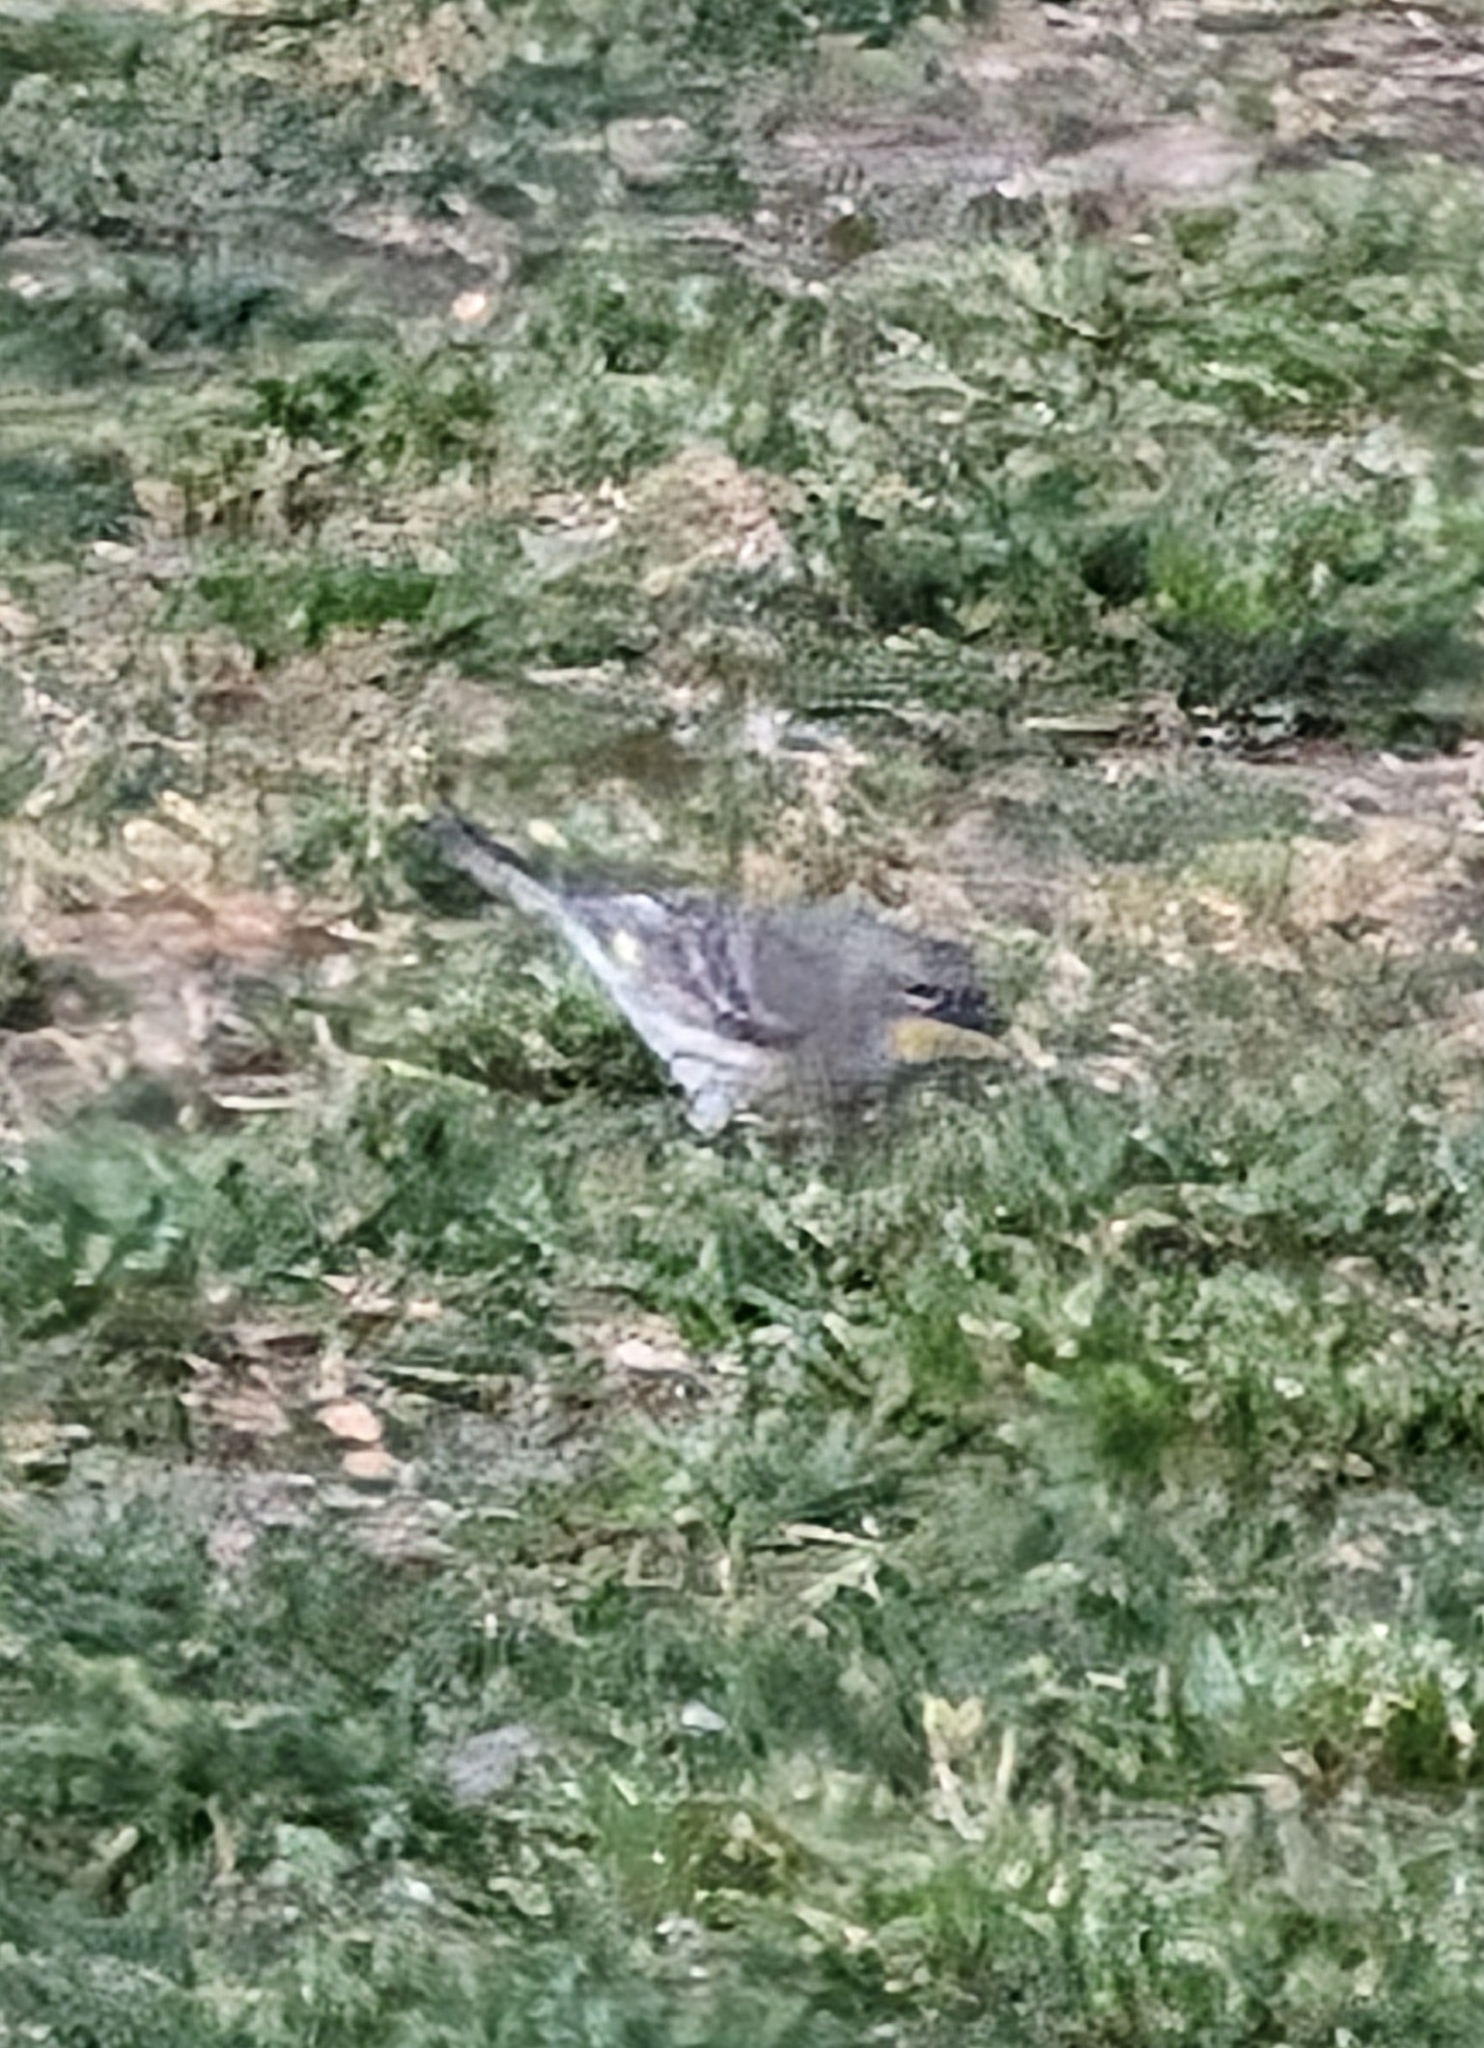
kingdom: Animalia
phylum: Chordata
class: Aves
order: Passeriformes
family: Parulidae
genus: Setophaga
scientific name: Setophaga coronata
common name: Myrtle warbler
